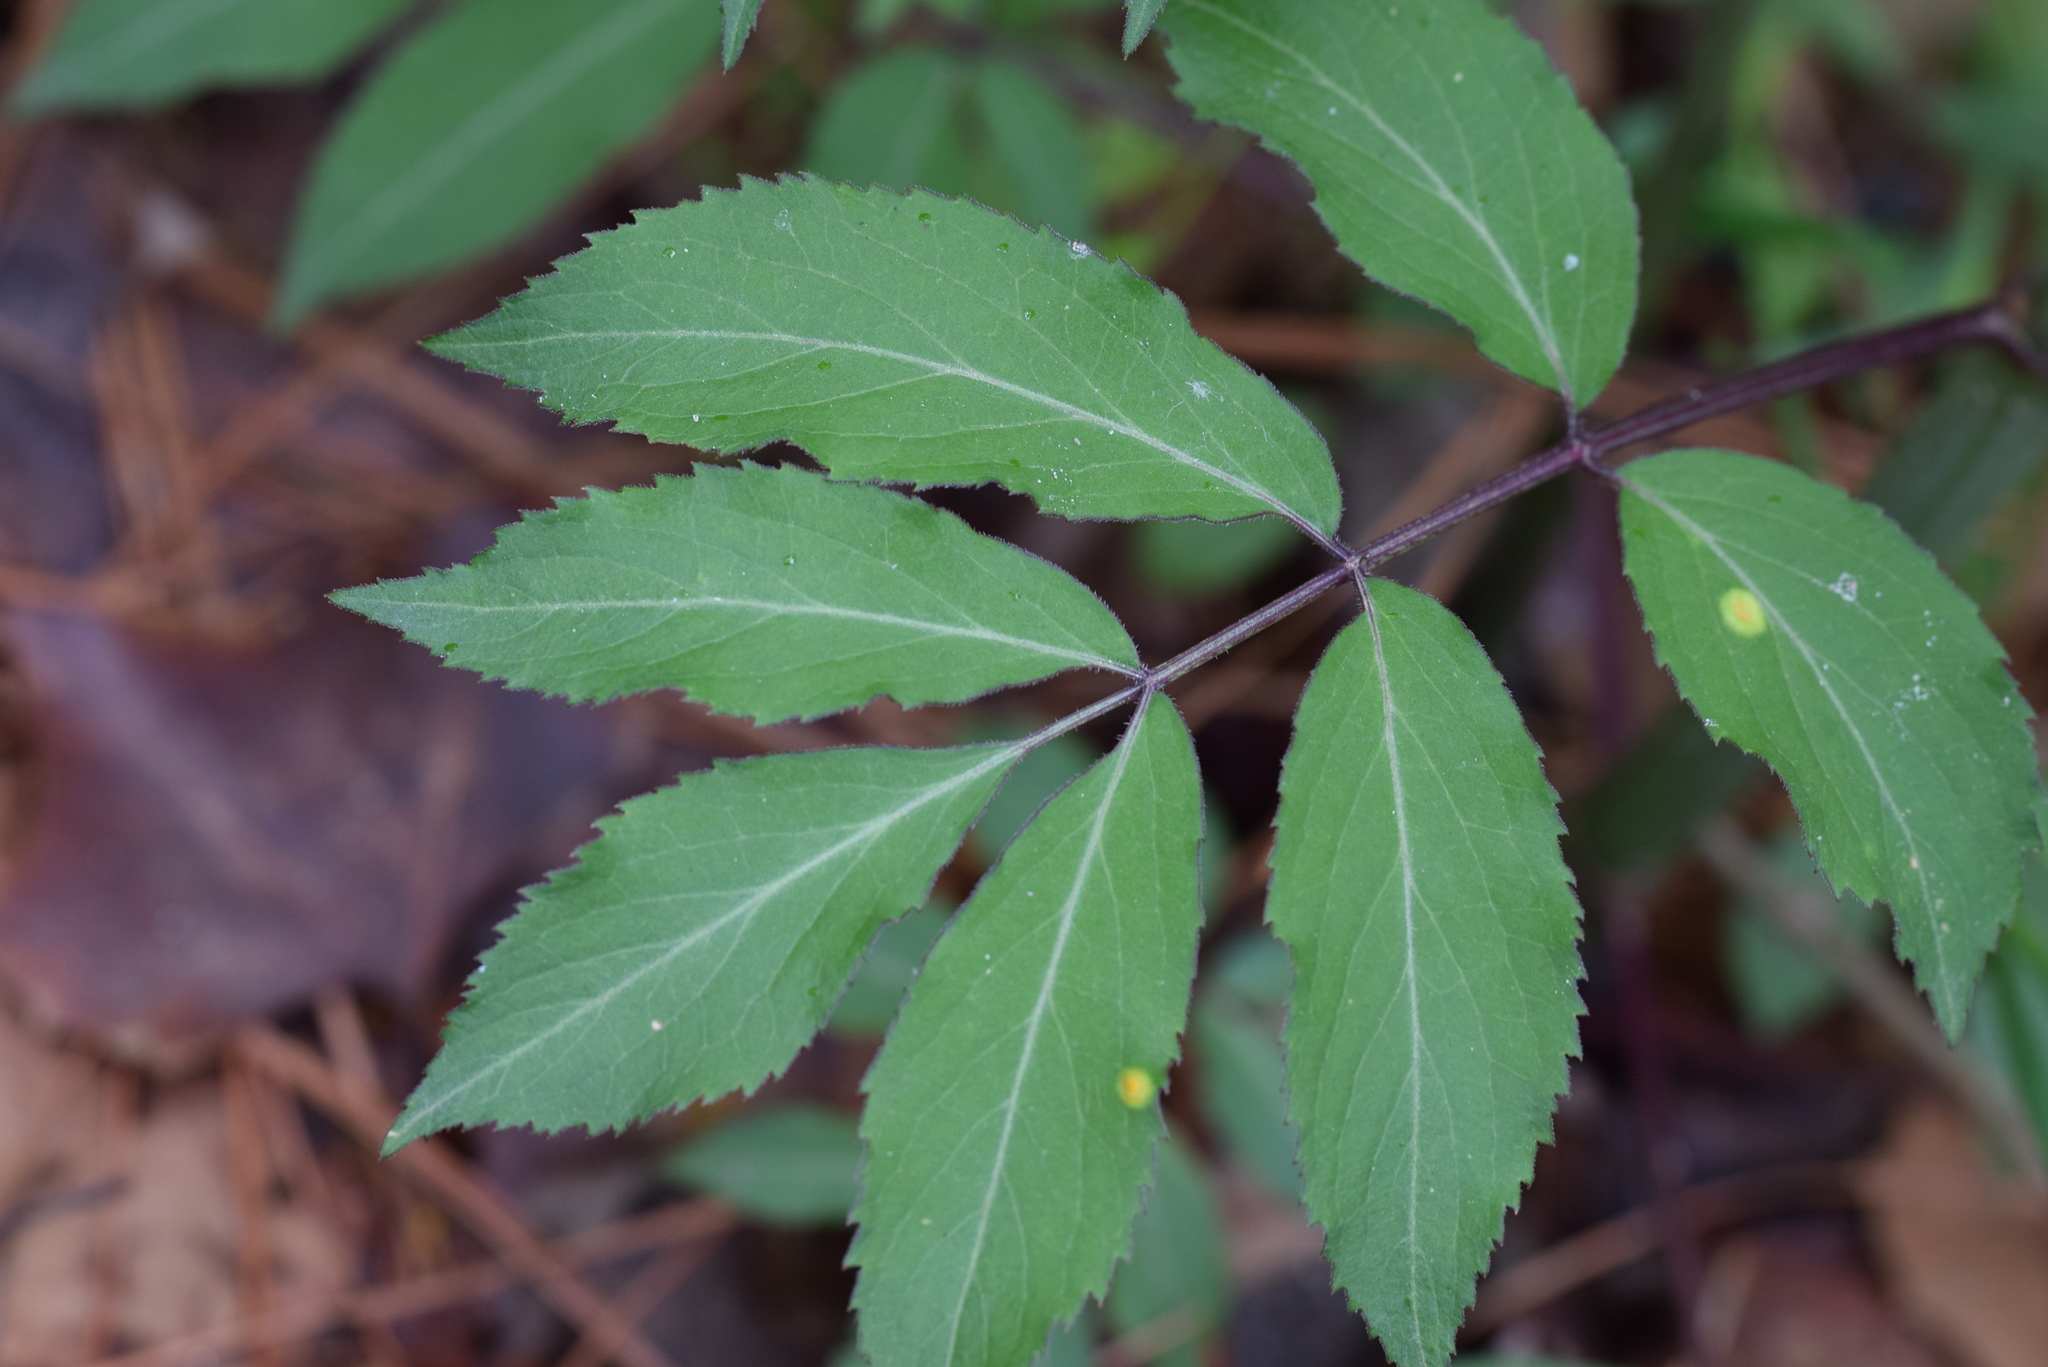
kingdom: Plantae
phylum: Tracheophyta
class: Magnoliopsida
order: Dipsacales
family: Viburnaceae
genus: Sambucus
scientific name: Sambucus canadensis
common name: American elder
